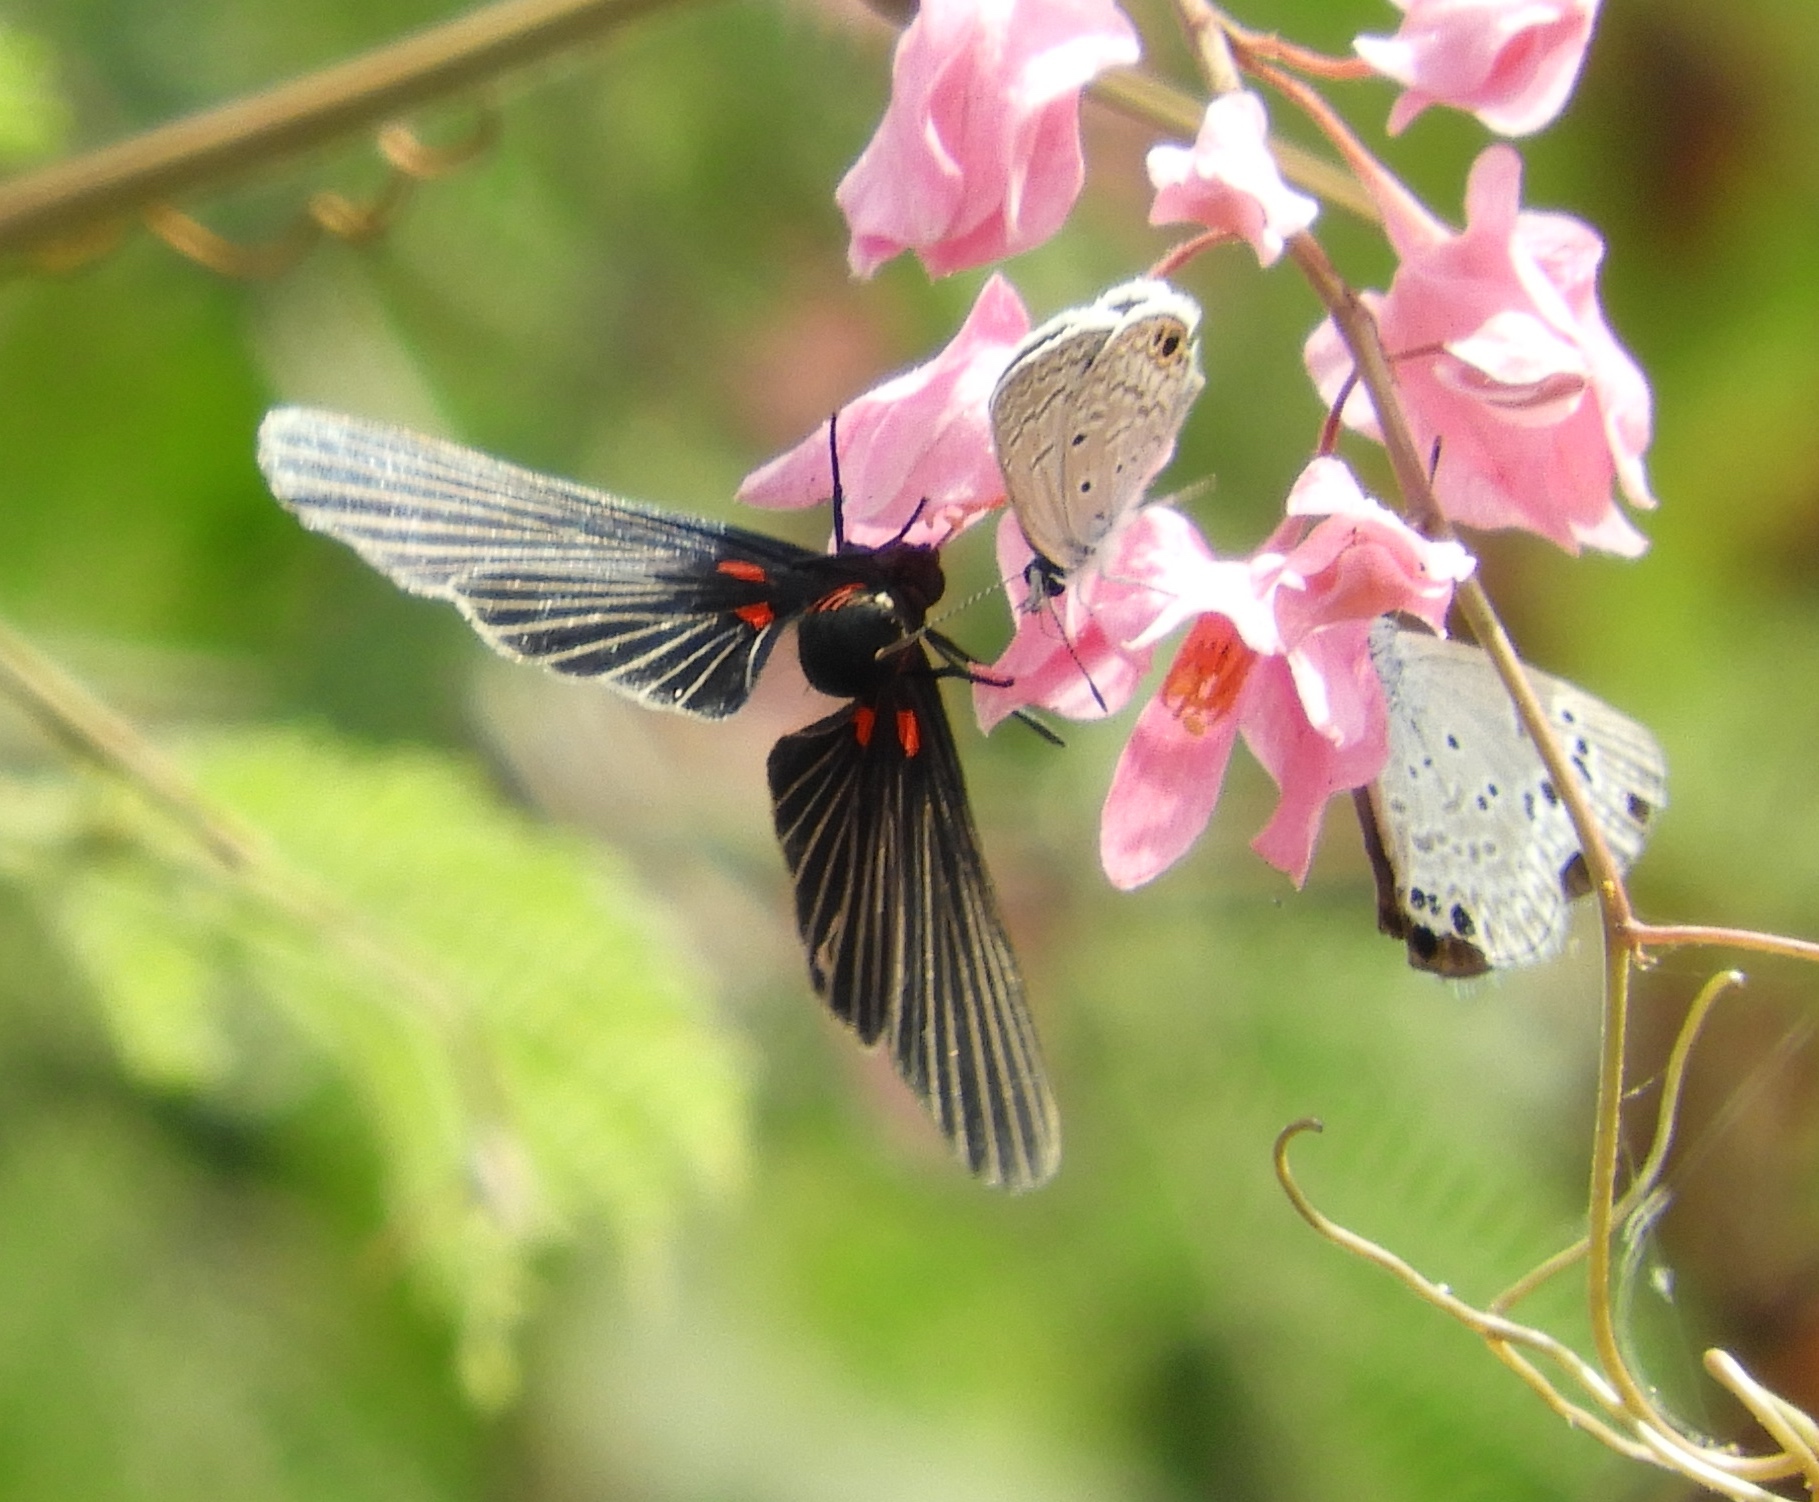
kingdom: Animalia
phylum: Arthropoda
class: Insecta
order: Lepidoptera
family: Lycaenidae
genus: Hemiargus
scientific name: Hemiargus ceraunus
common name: Ceraunus blue
